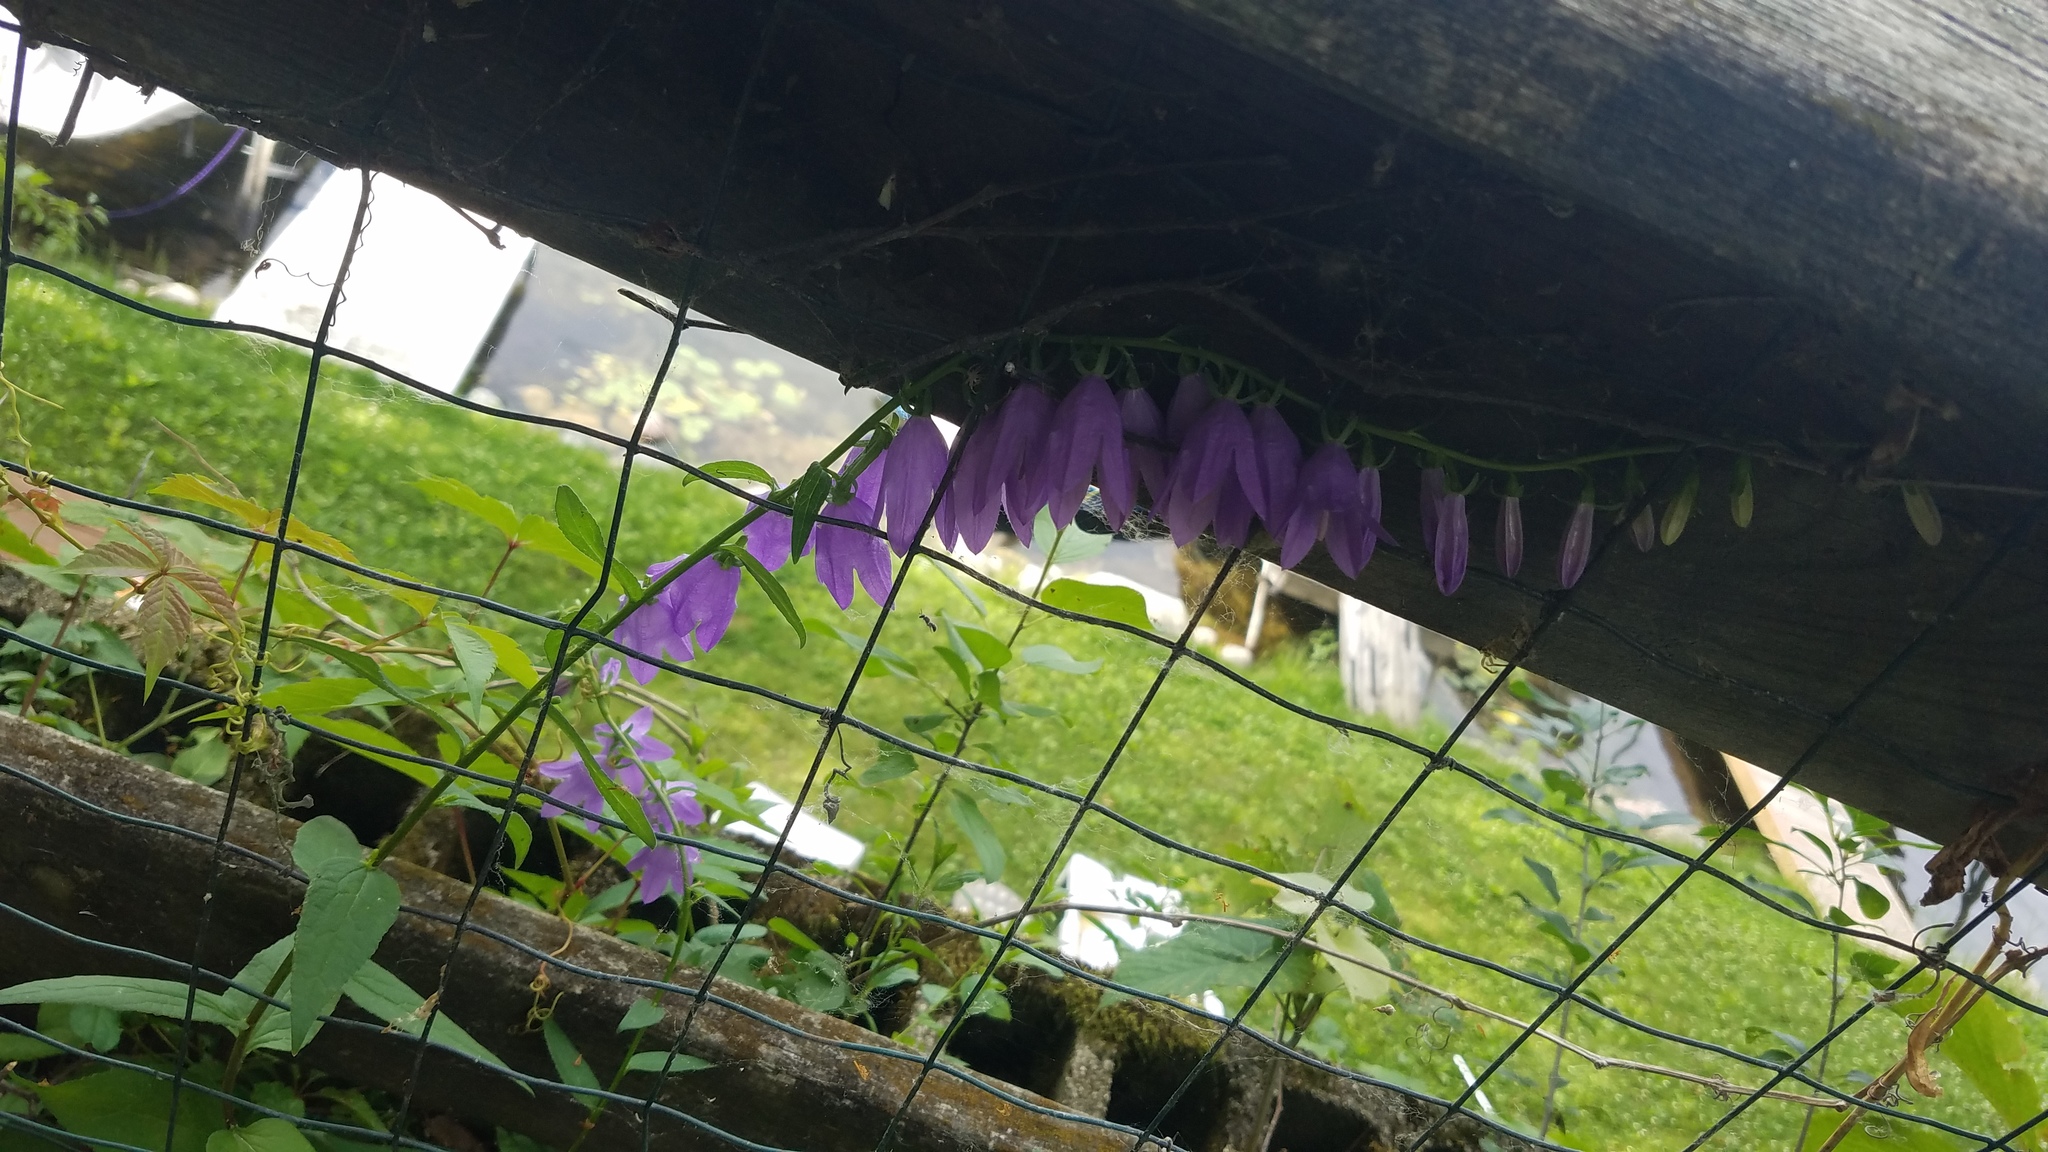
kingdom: Plantae
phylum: Tracheophyta
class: Magnoliopsida
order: Asterales
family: Campanulaceae
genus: Campanula
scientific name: Campanula rapunculoides
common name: Creeping bellflower
